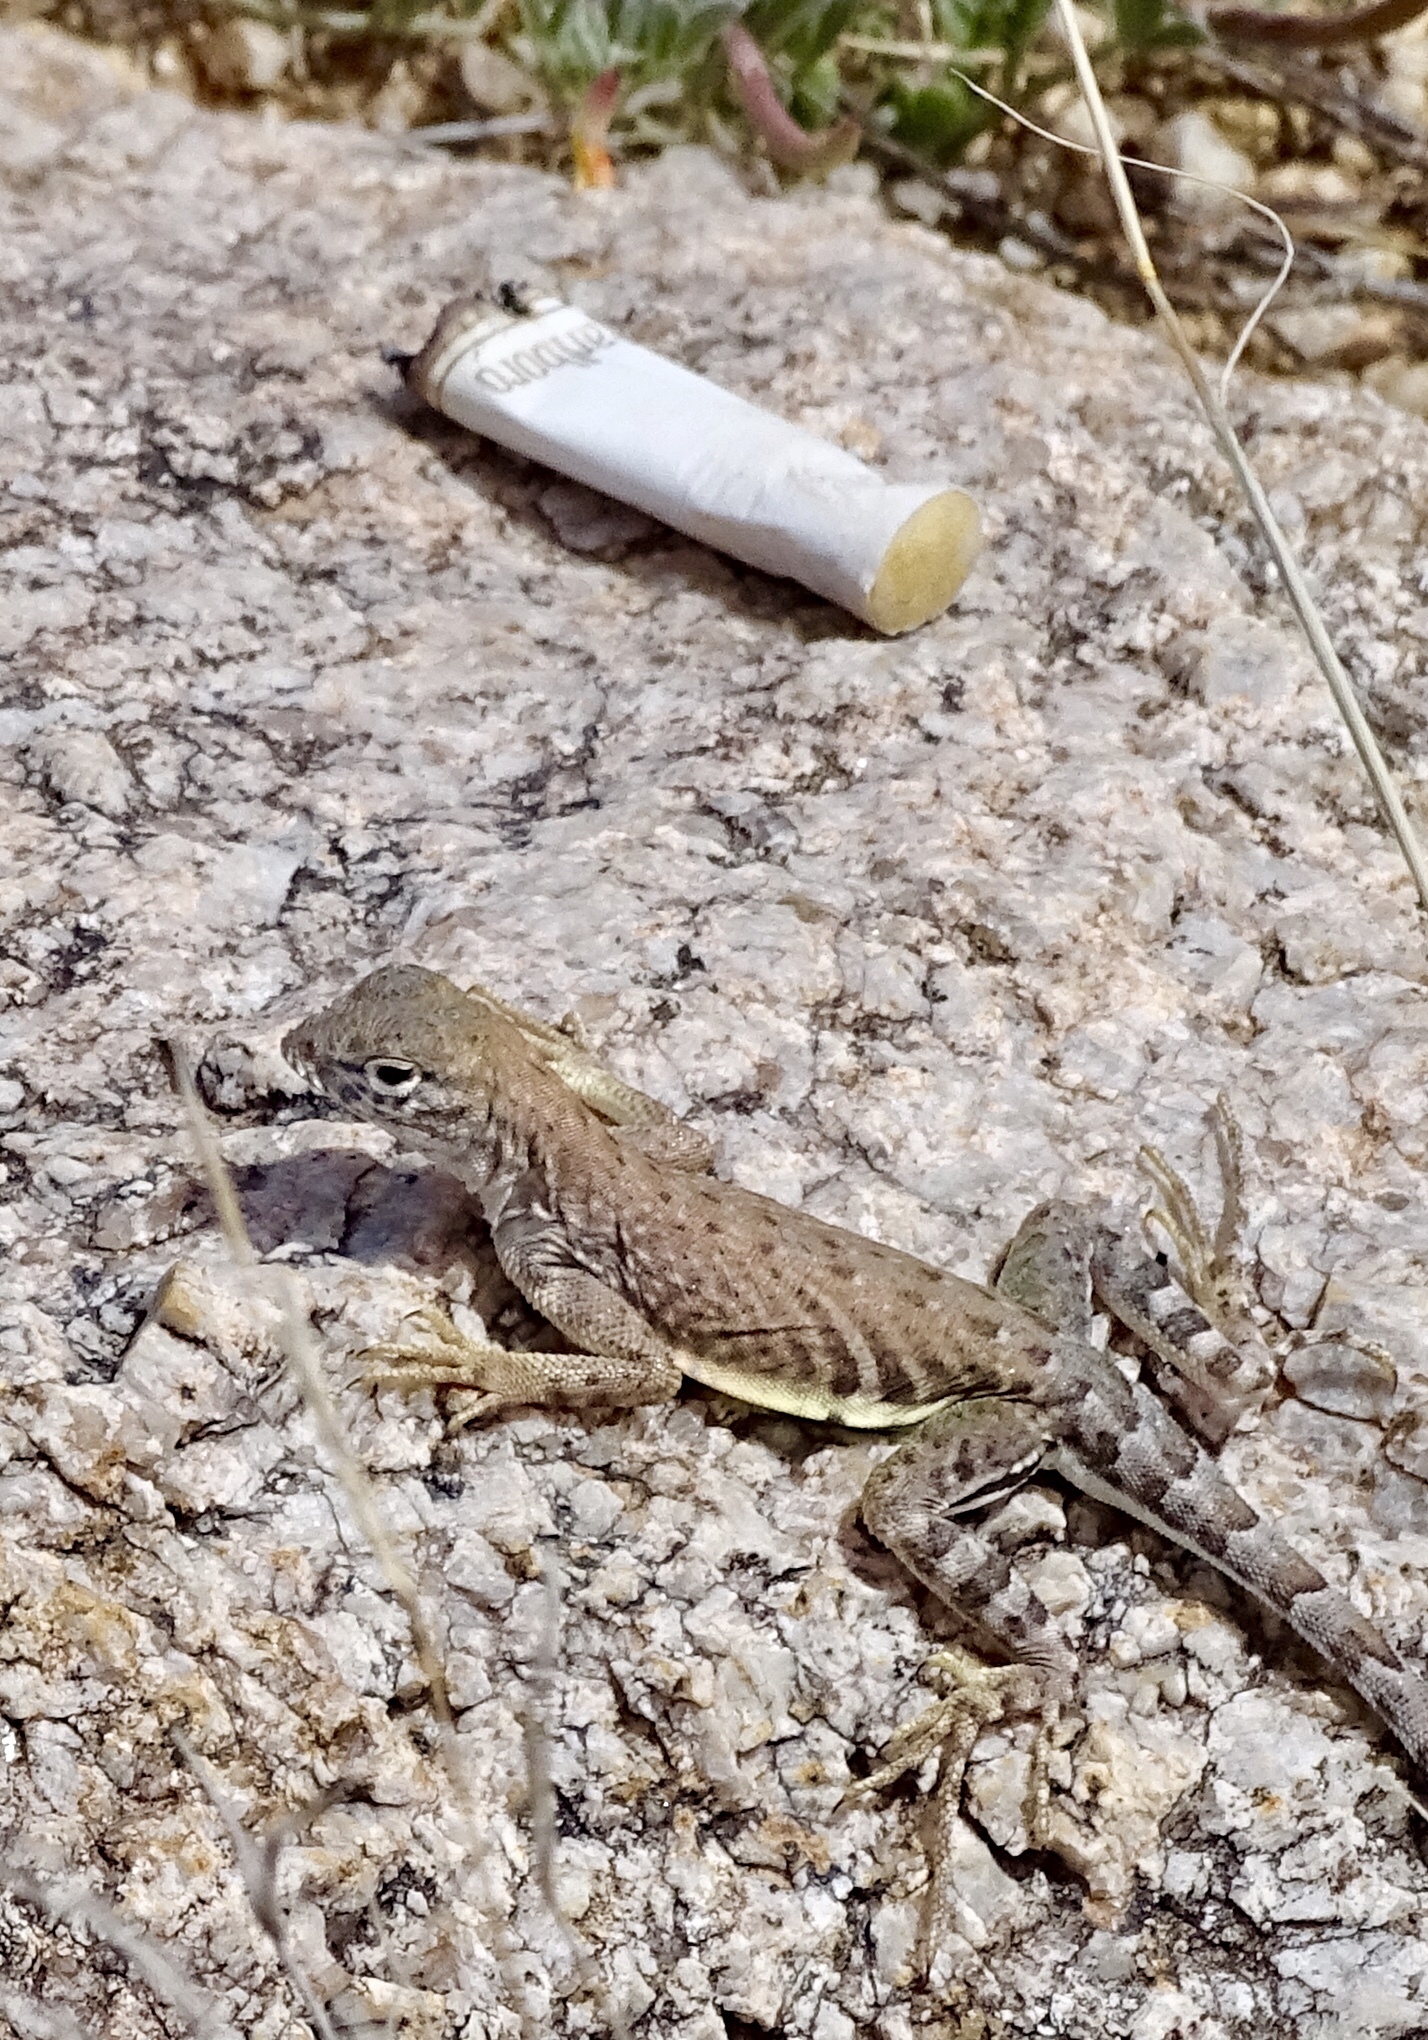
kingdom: Animalia
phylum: Chordata
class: Squamata
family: Phrynosomatidae
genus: Cophosaurus
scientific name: Cophosaurus texanus
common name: Greater earless lizard
